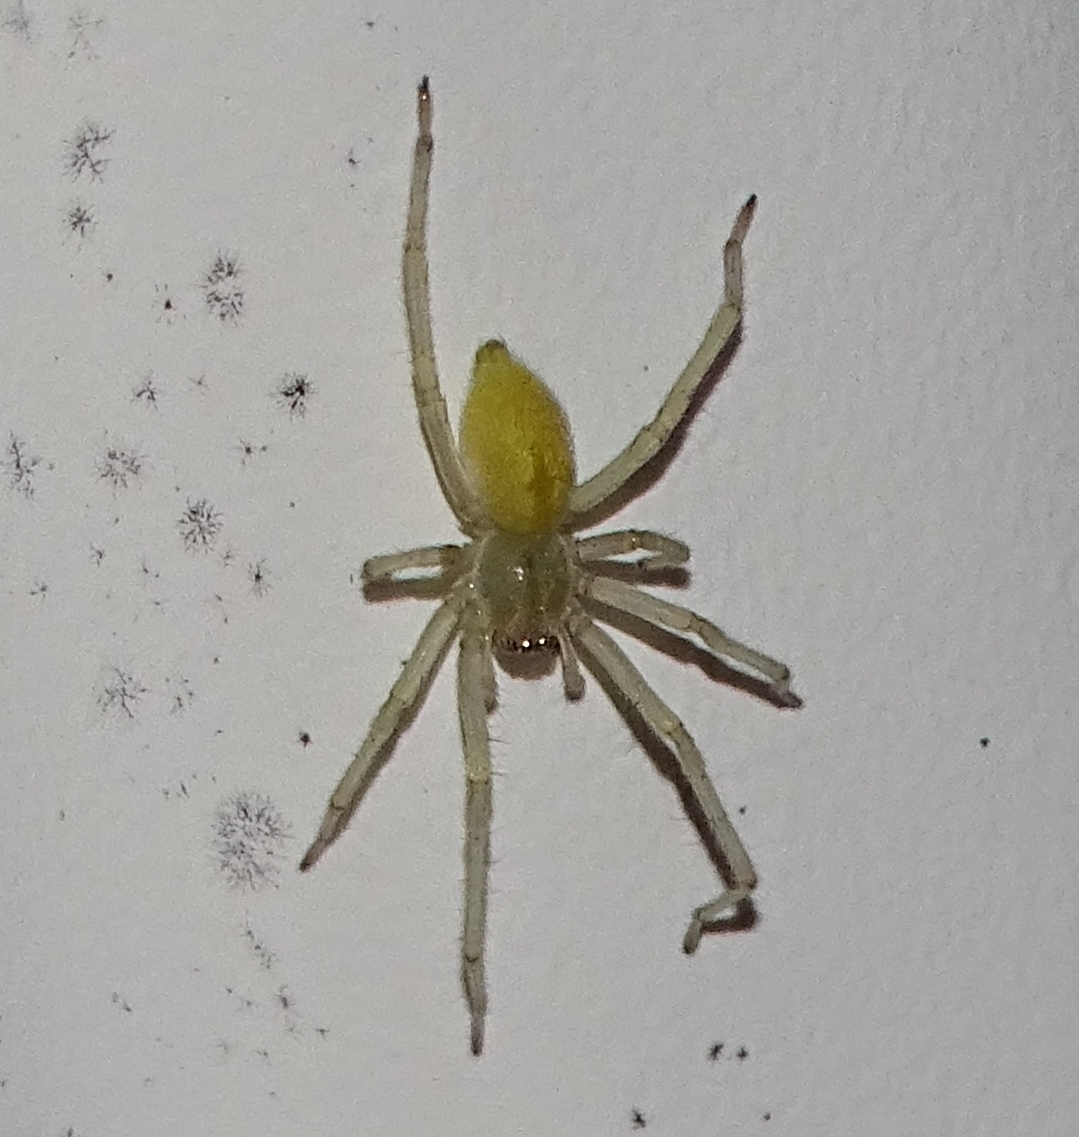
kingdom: Animalia
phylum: Arthropoda
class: Arachnida
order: Araneae
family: Cheiracanthiidae
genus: Cheiracanthium
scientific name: Cheiracanthium mildei
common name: Northern yellow sac spider
